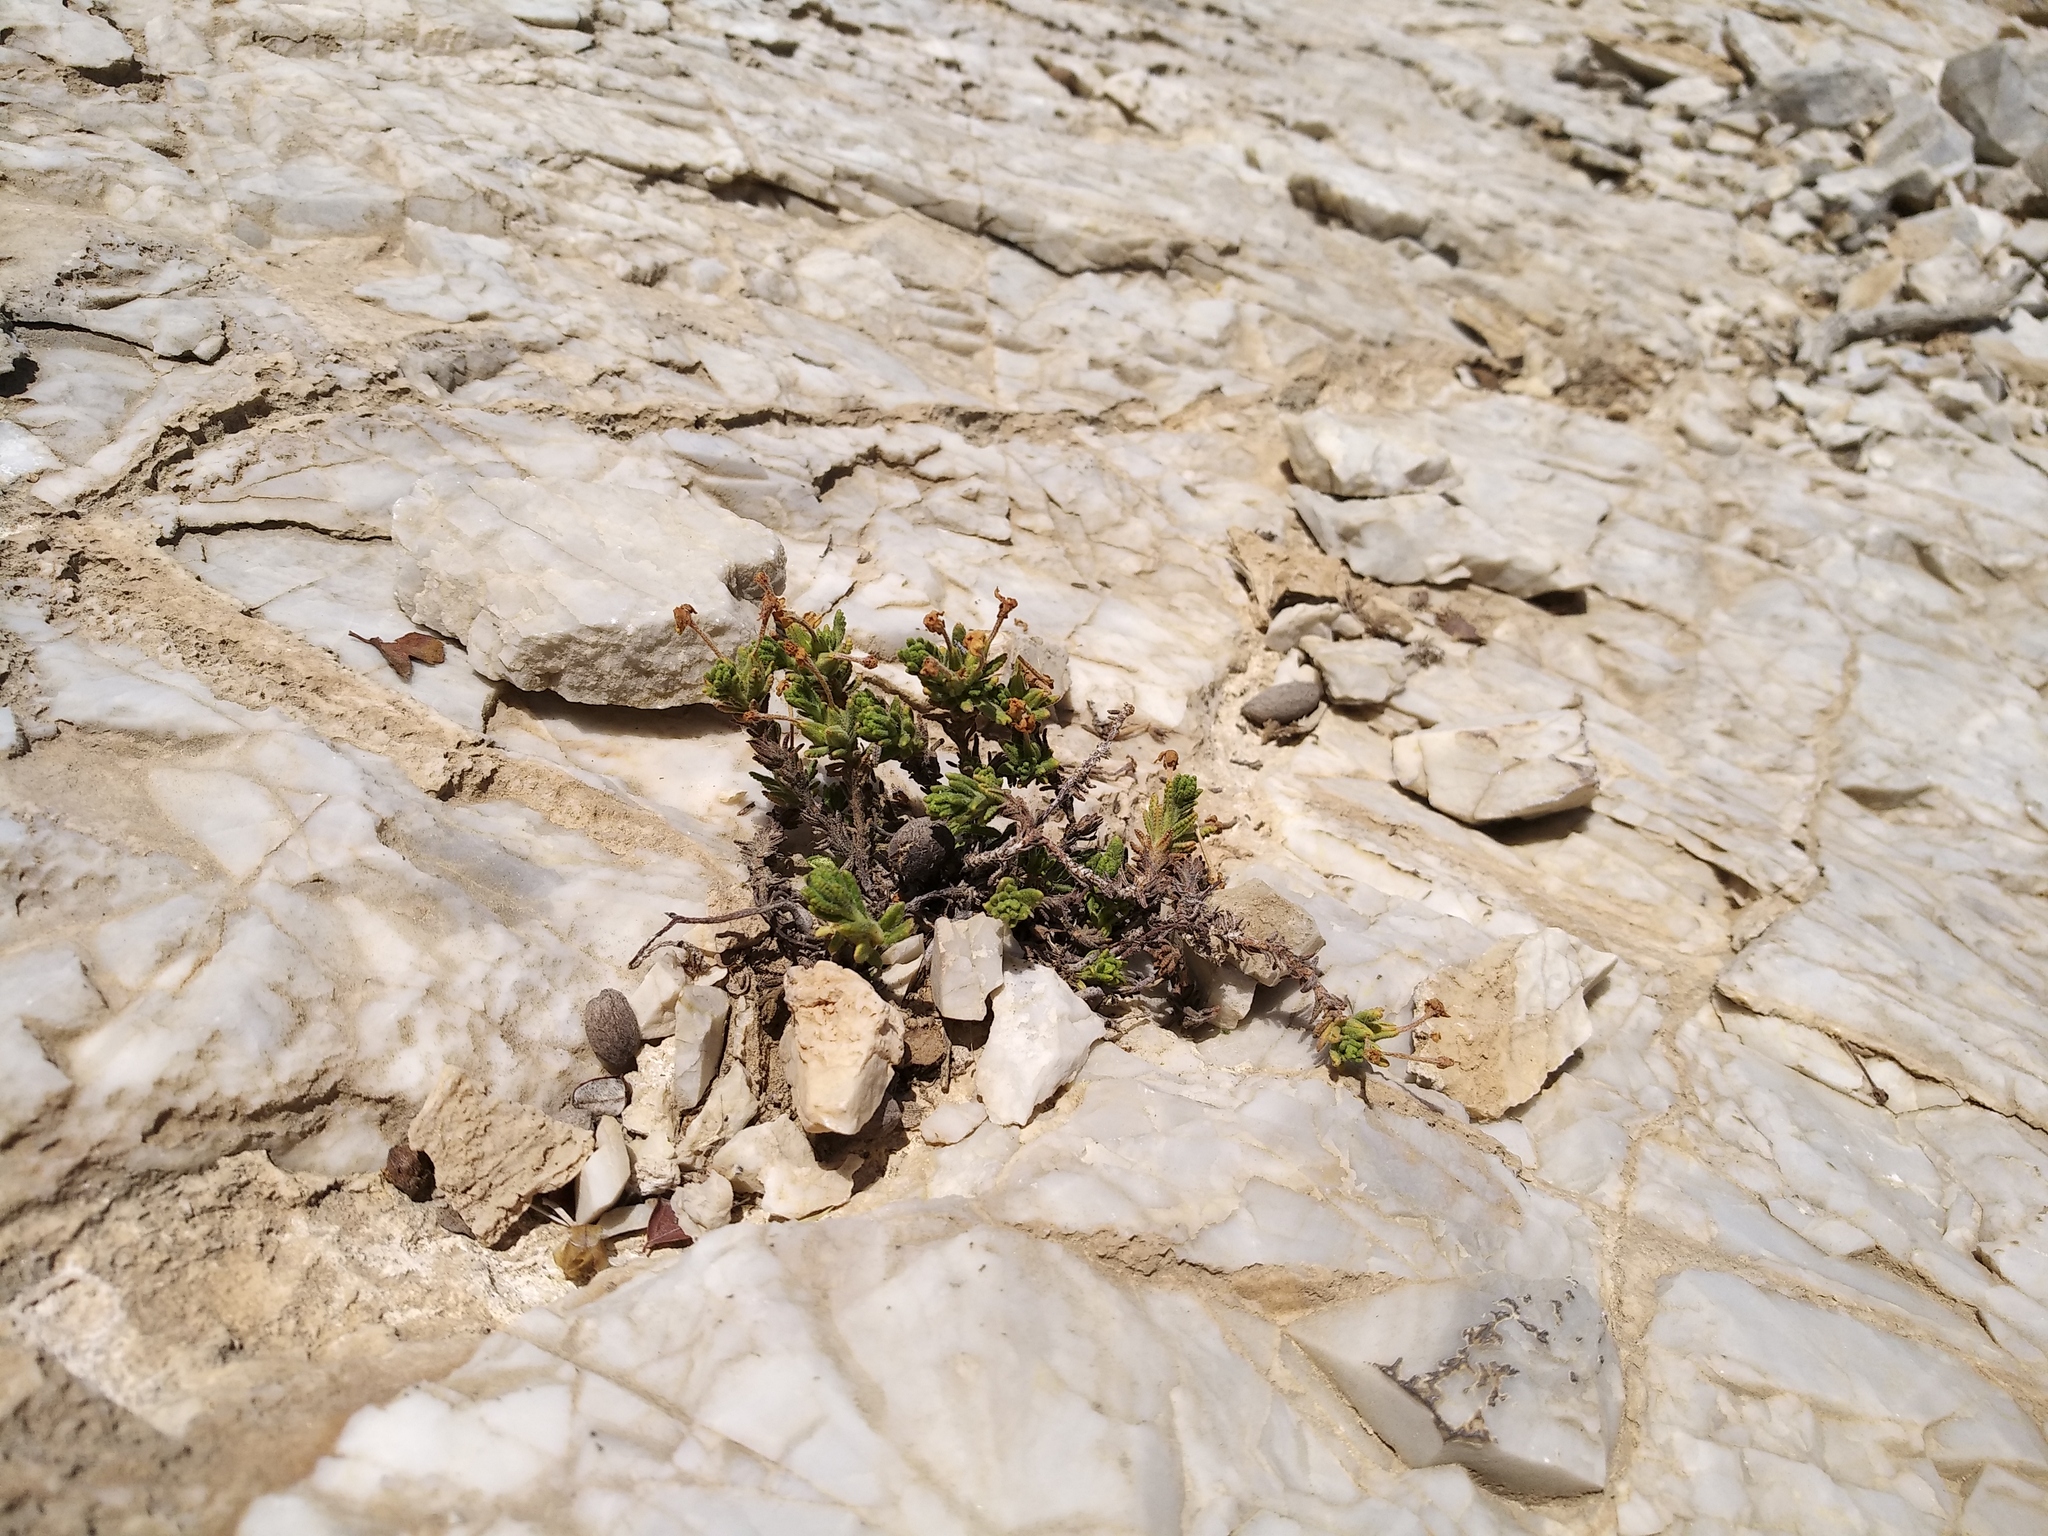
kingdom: Plantae
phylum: Tracheophyta
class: Magnoliopsida
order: Ericales
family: Primulaceae
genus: Dionysia
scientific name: Dionysia revoluta
